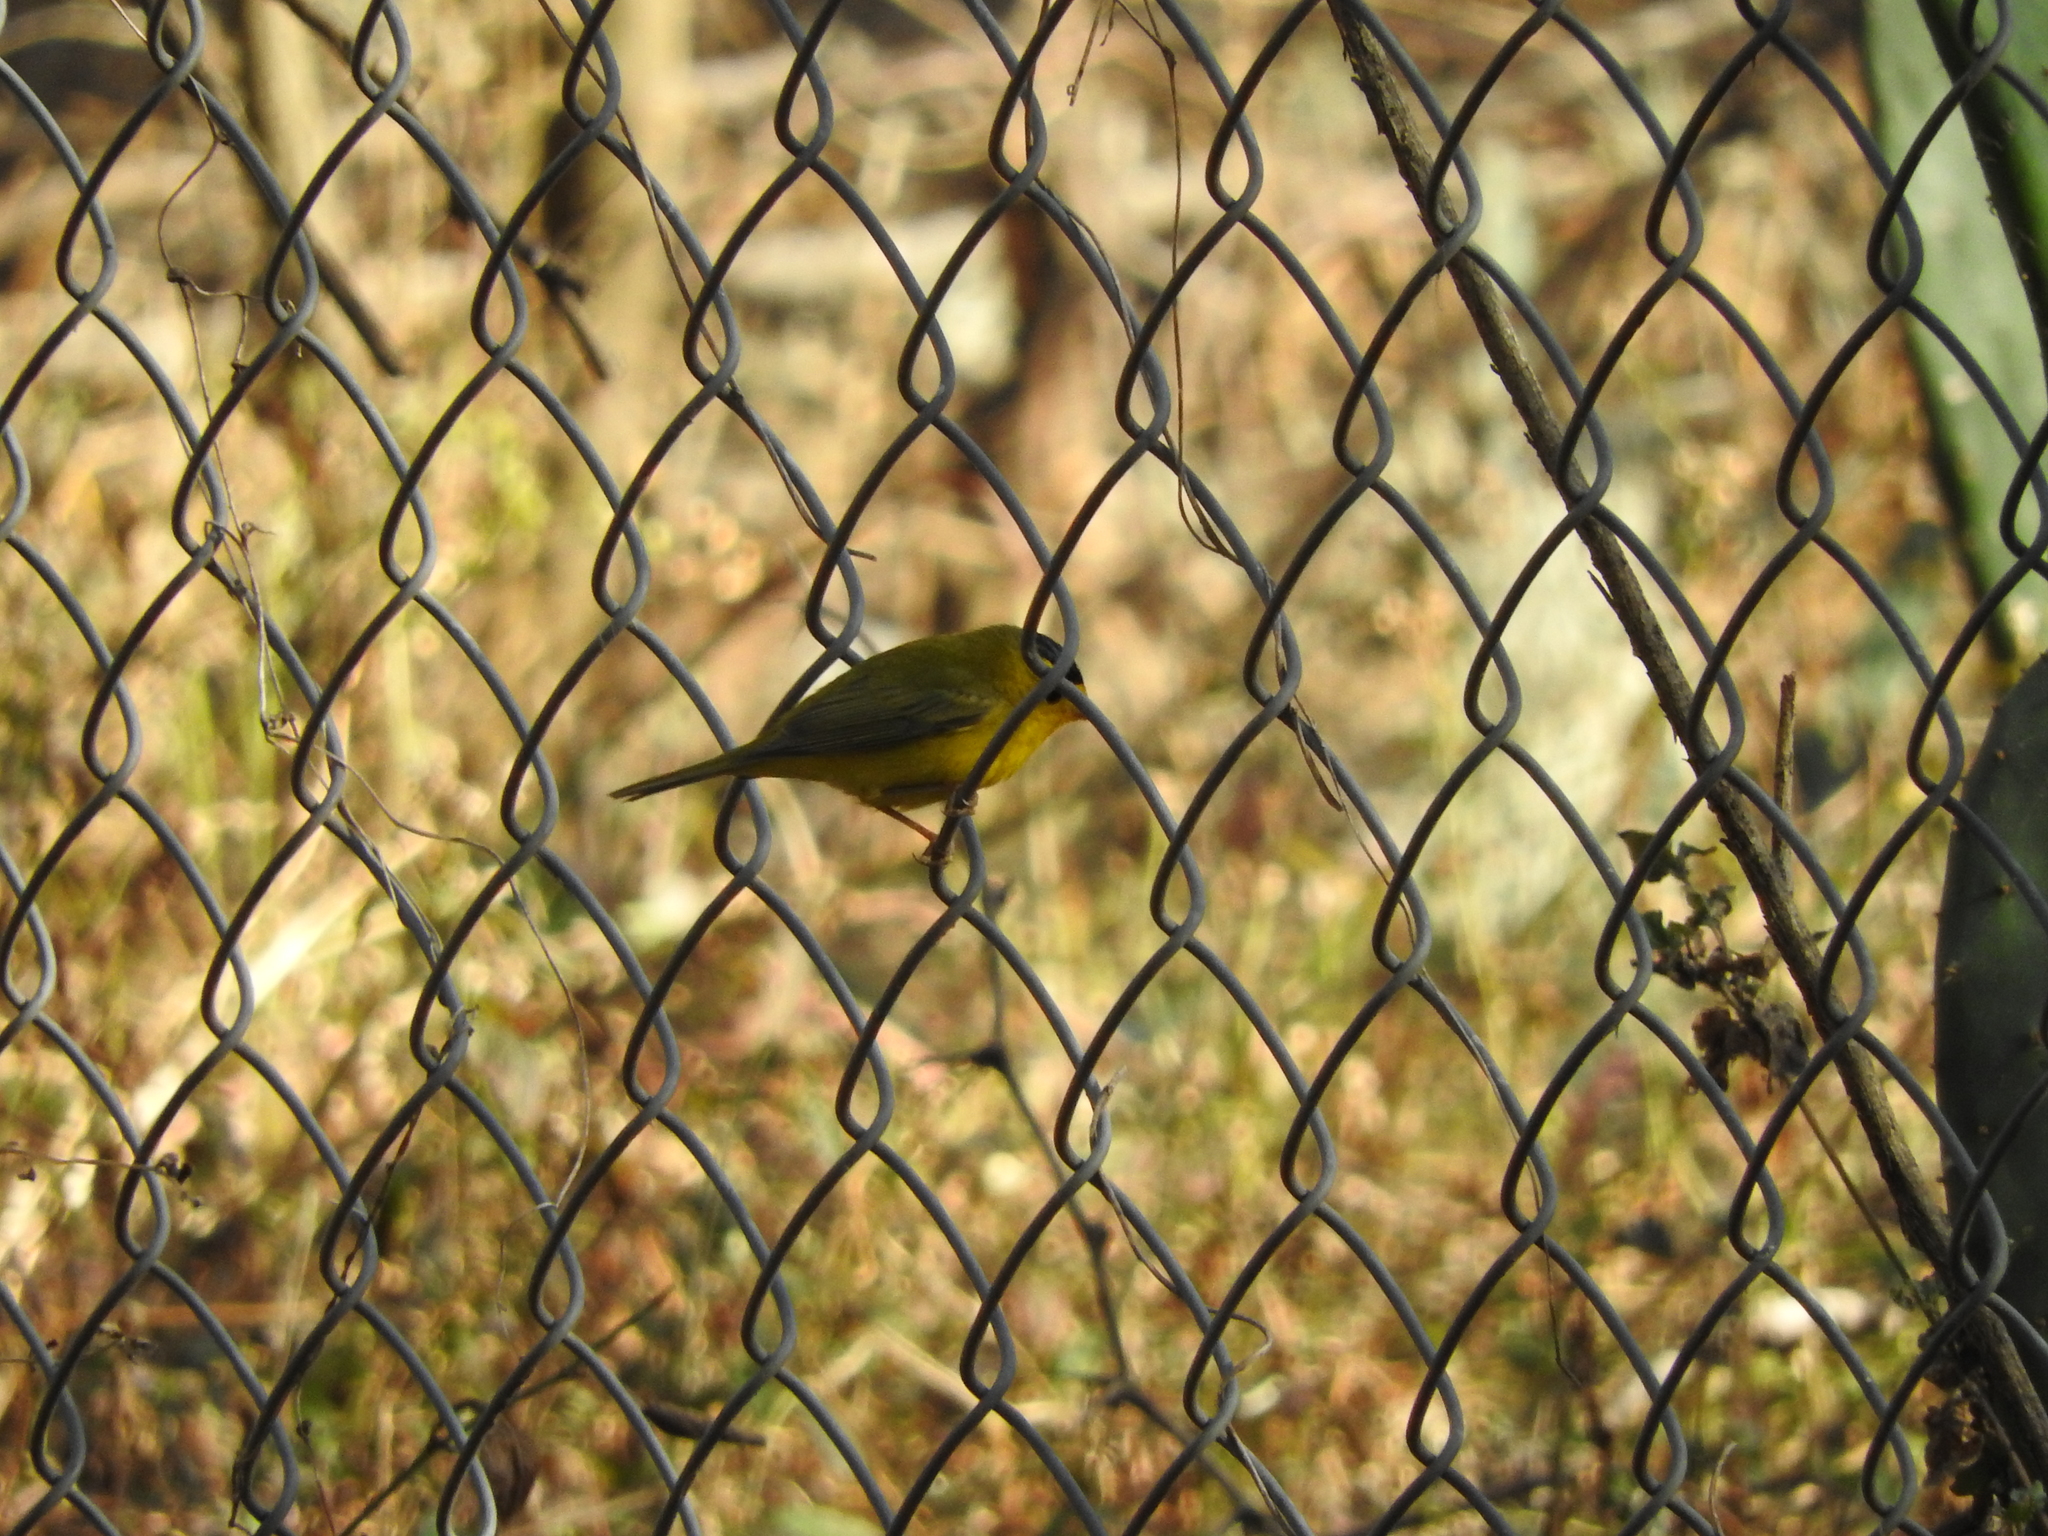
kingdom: Animalia
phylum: Chordata
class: Aves
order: Passeriformes
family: Parulidae
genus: Cardellina
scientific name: Cardellina pusilla
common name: Wilson's warbler
